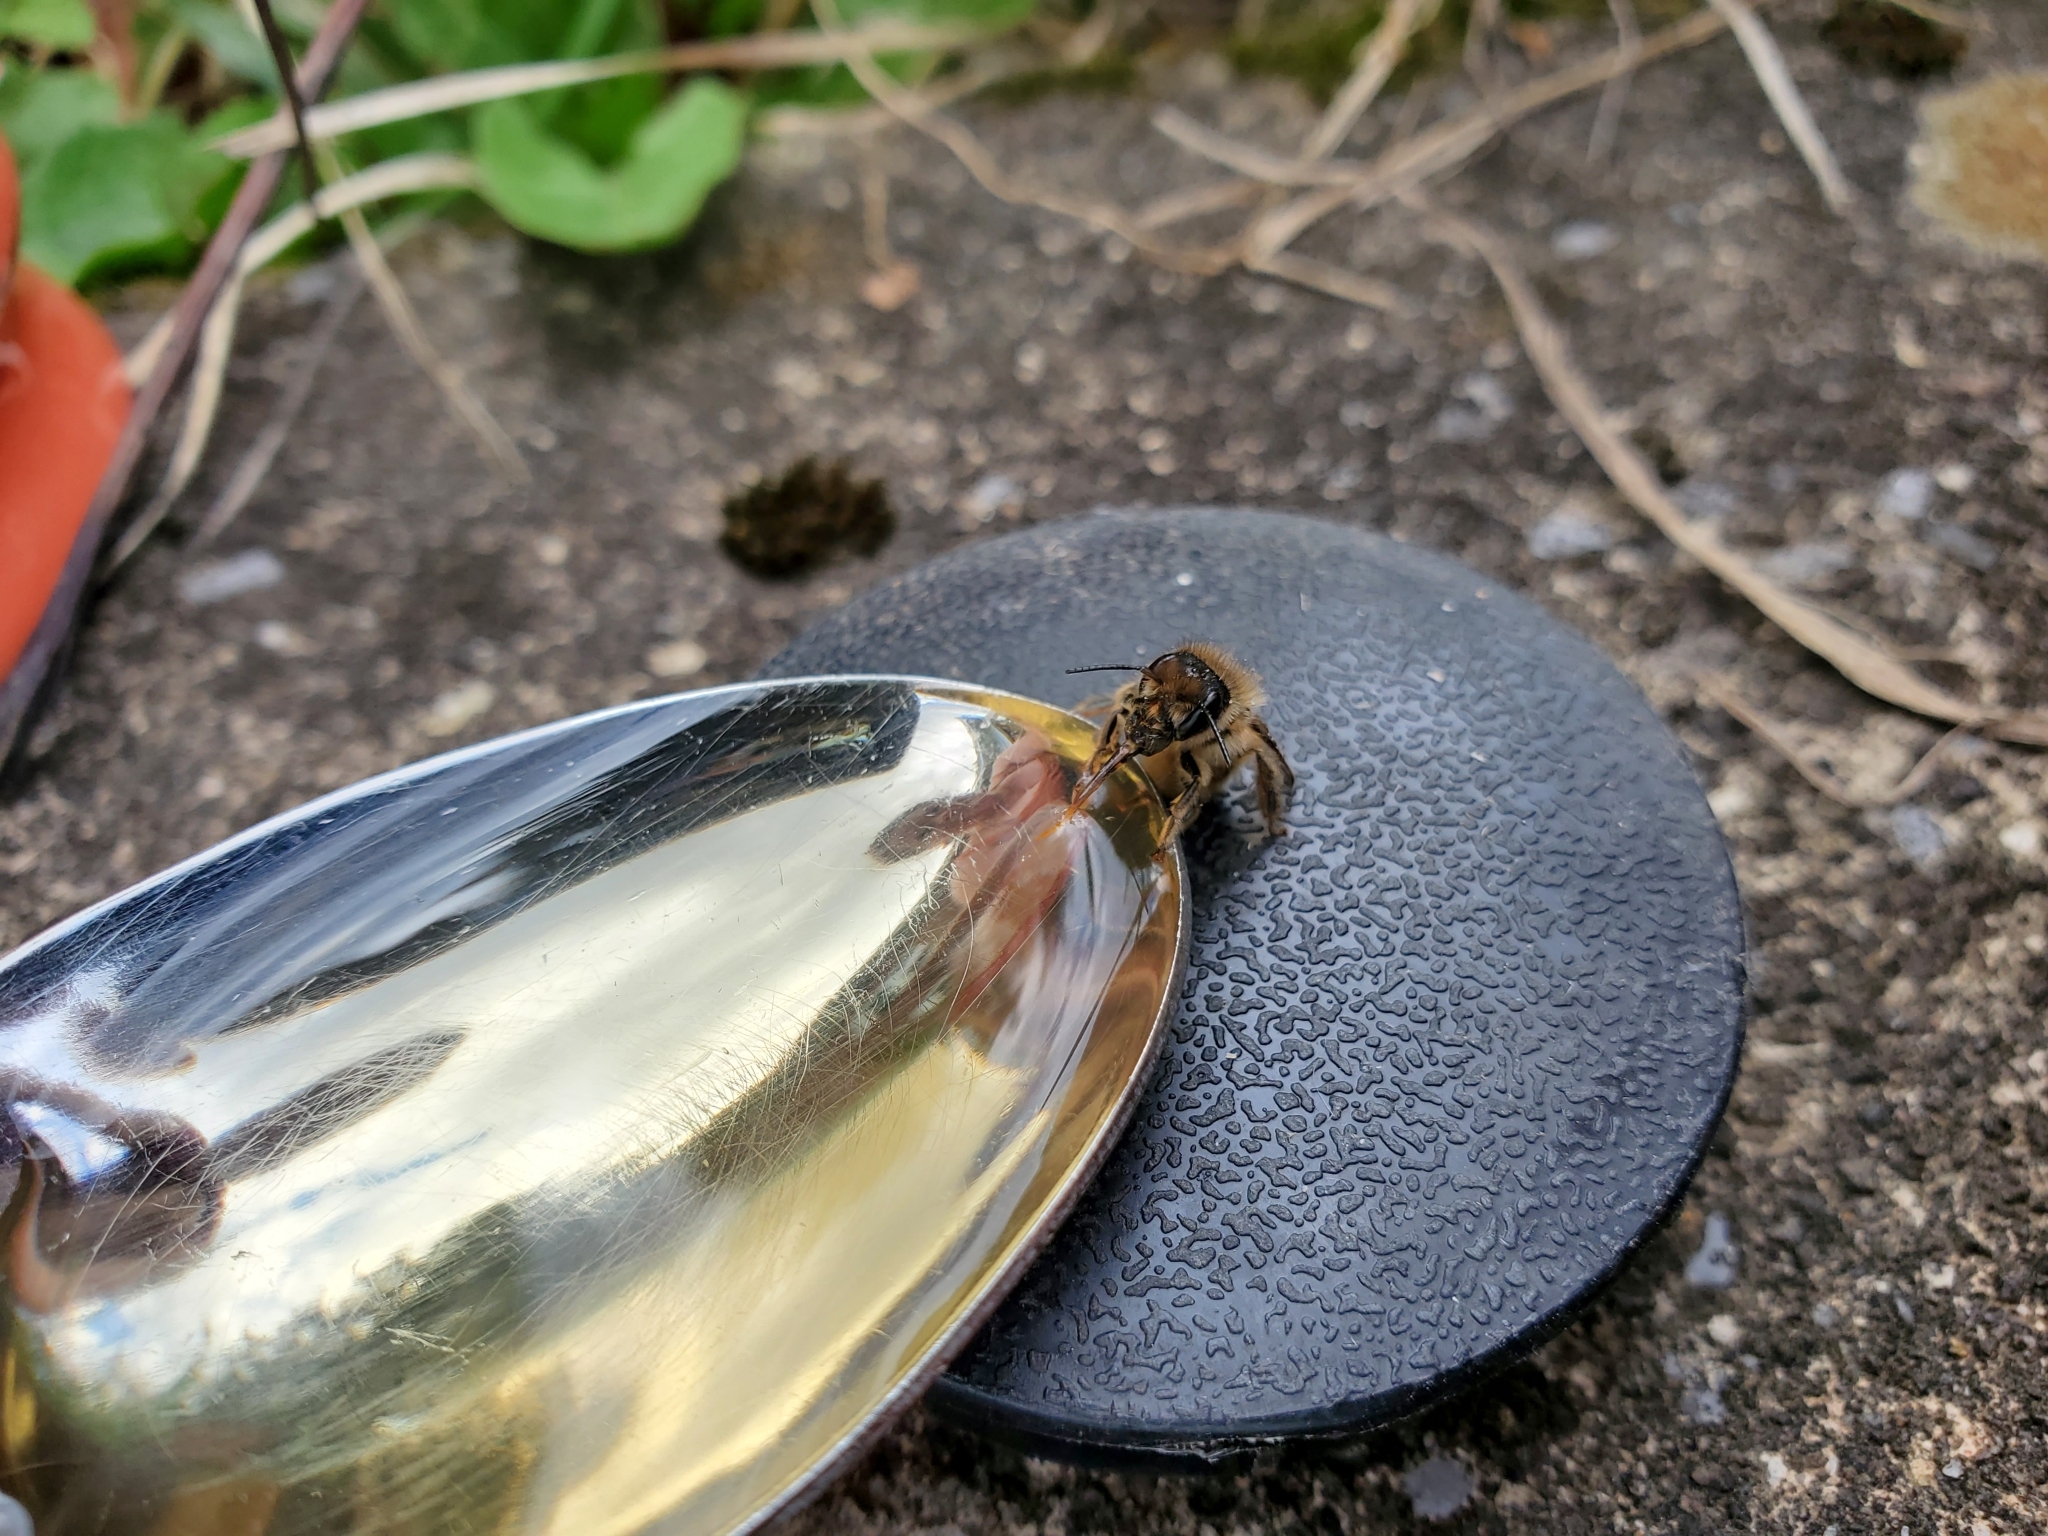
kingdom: Animalia
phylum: Arthropoda
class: Insecta
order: Hymenoptera
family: Megachilidae
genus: Osmia
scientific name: Osmia cornifrons
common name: Horn-faced bee
